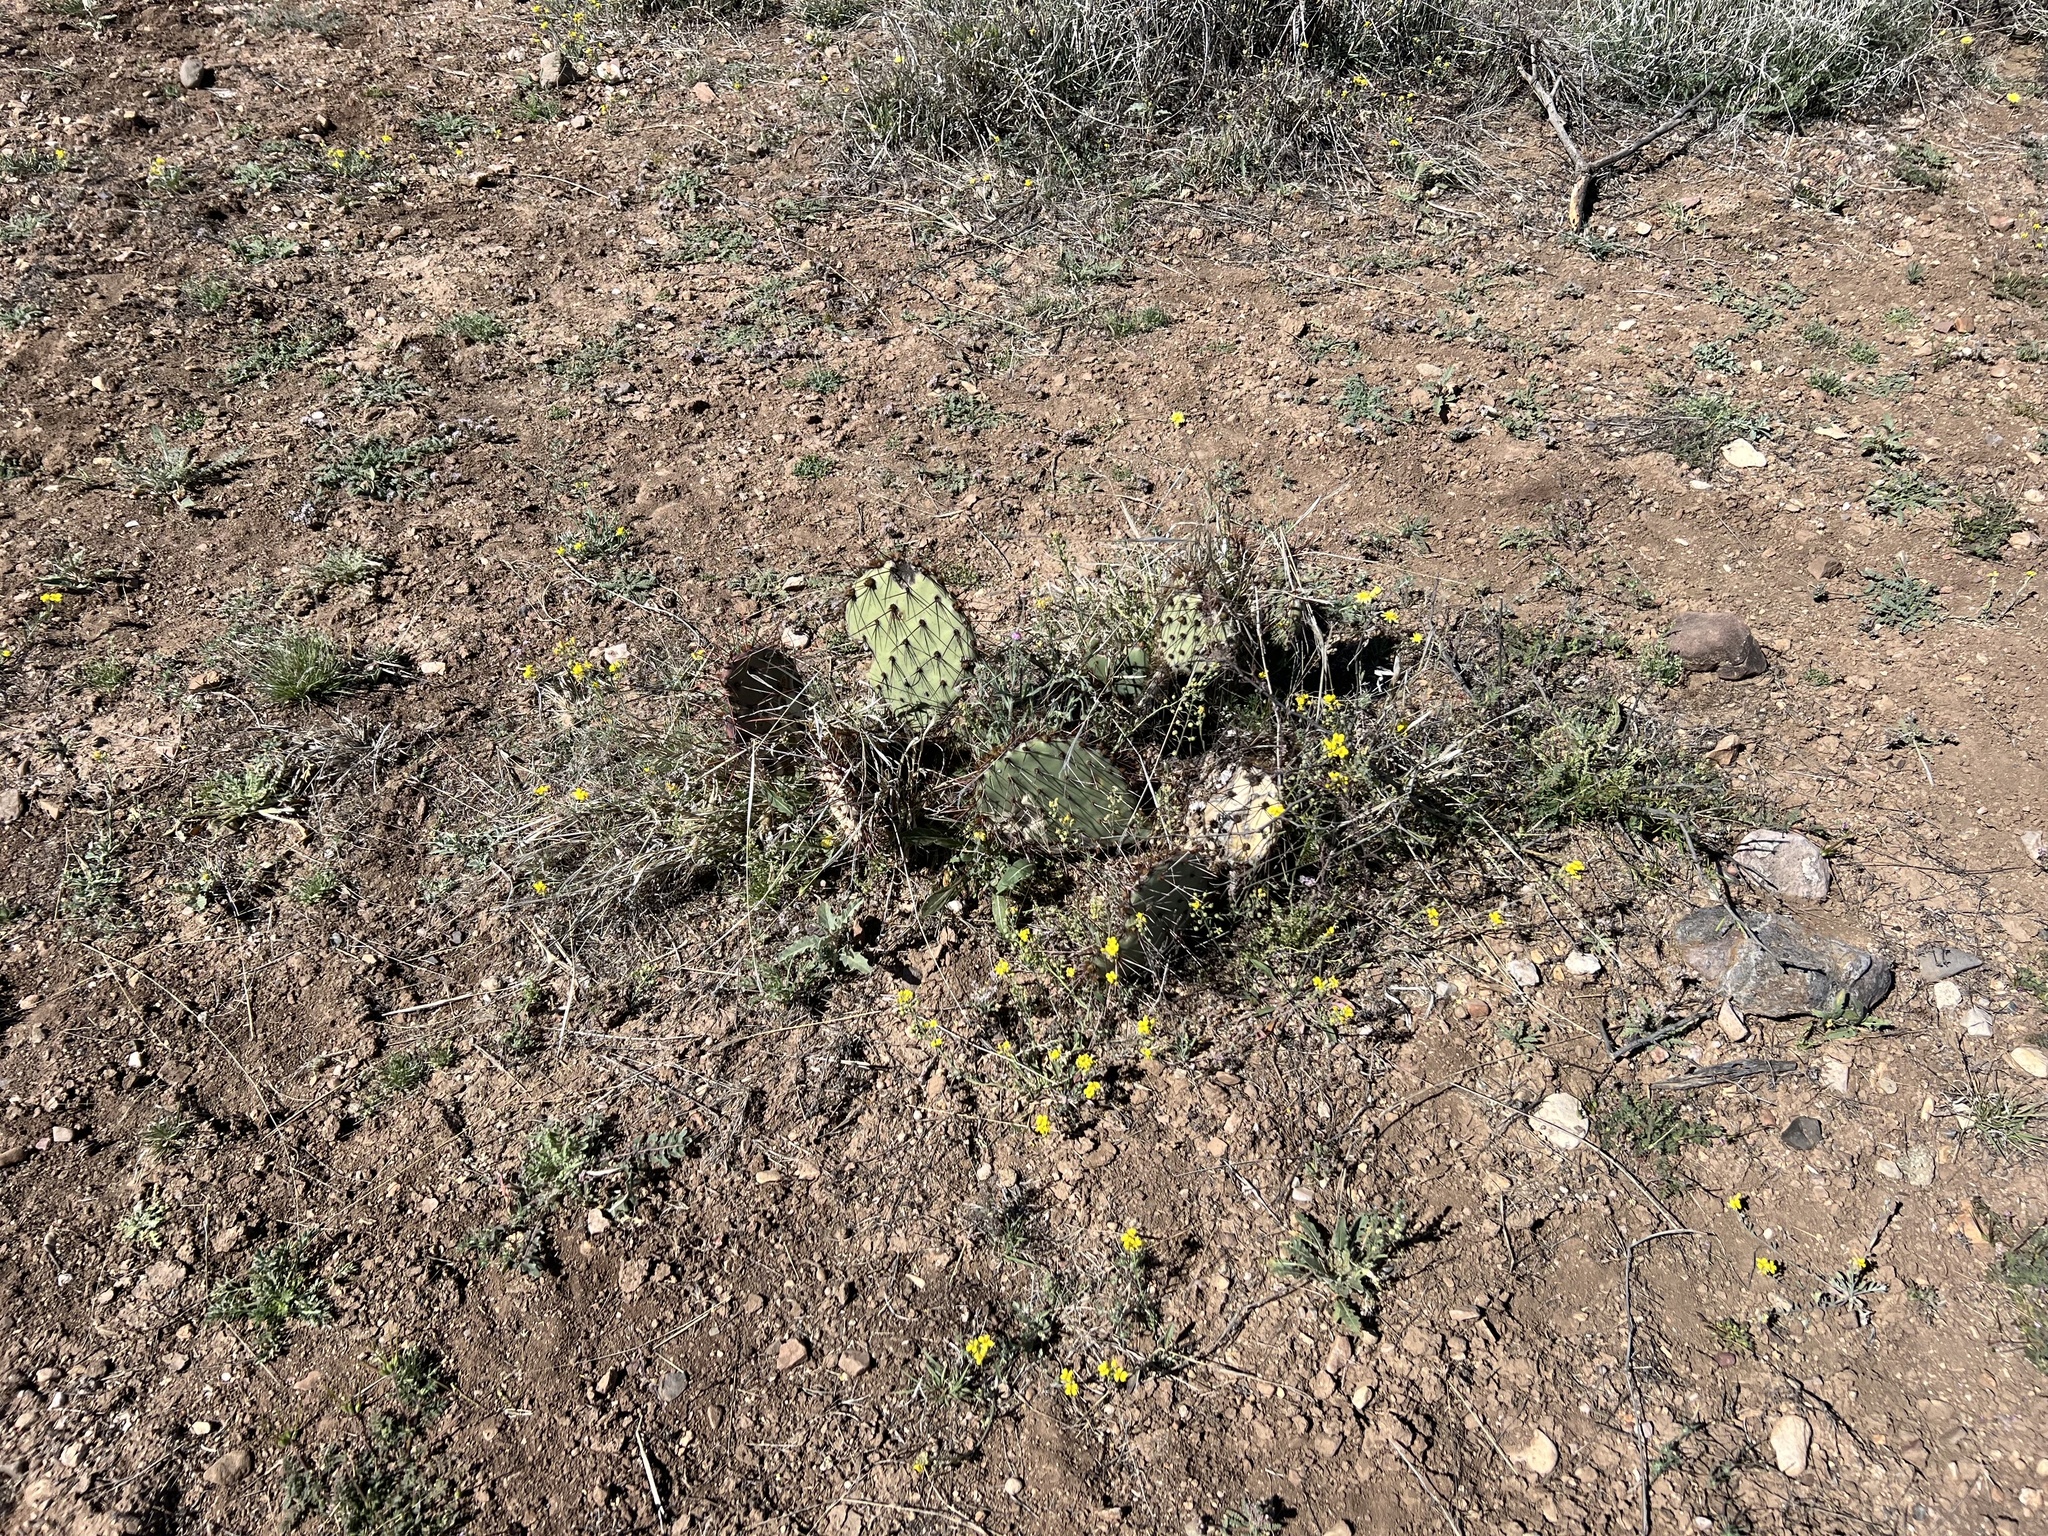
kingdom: Plantae
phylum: Tracheophyta
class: Magnoliopsida
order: Caryophyllales
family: Cactaceae
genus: Opuntia
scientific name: Opuntia phaeacantha
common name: New mexico prickly-pear
